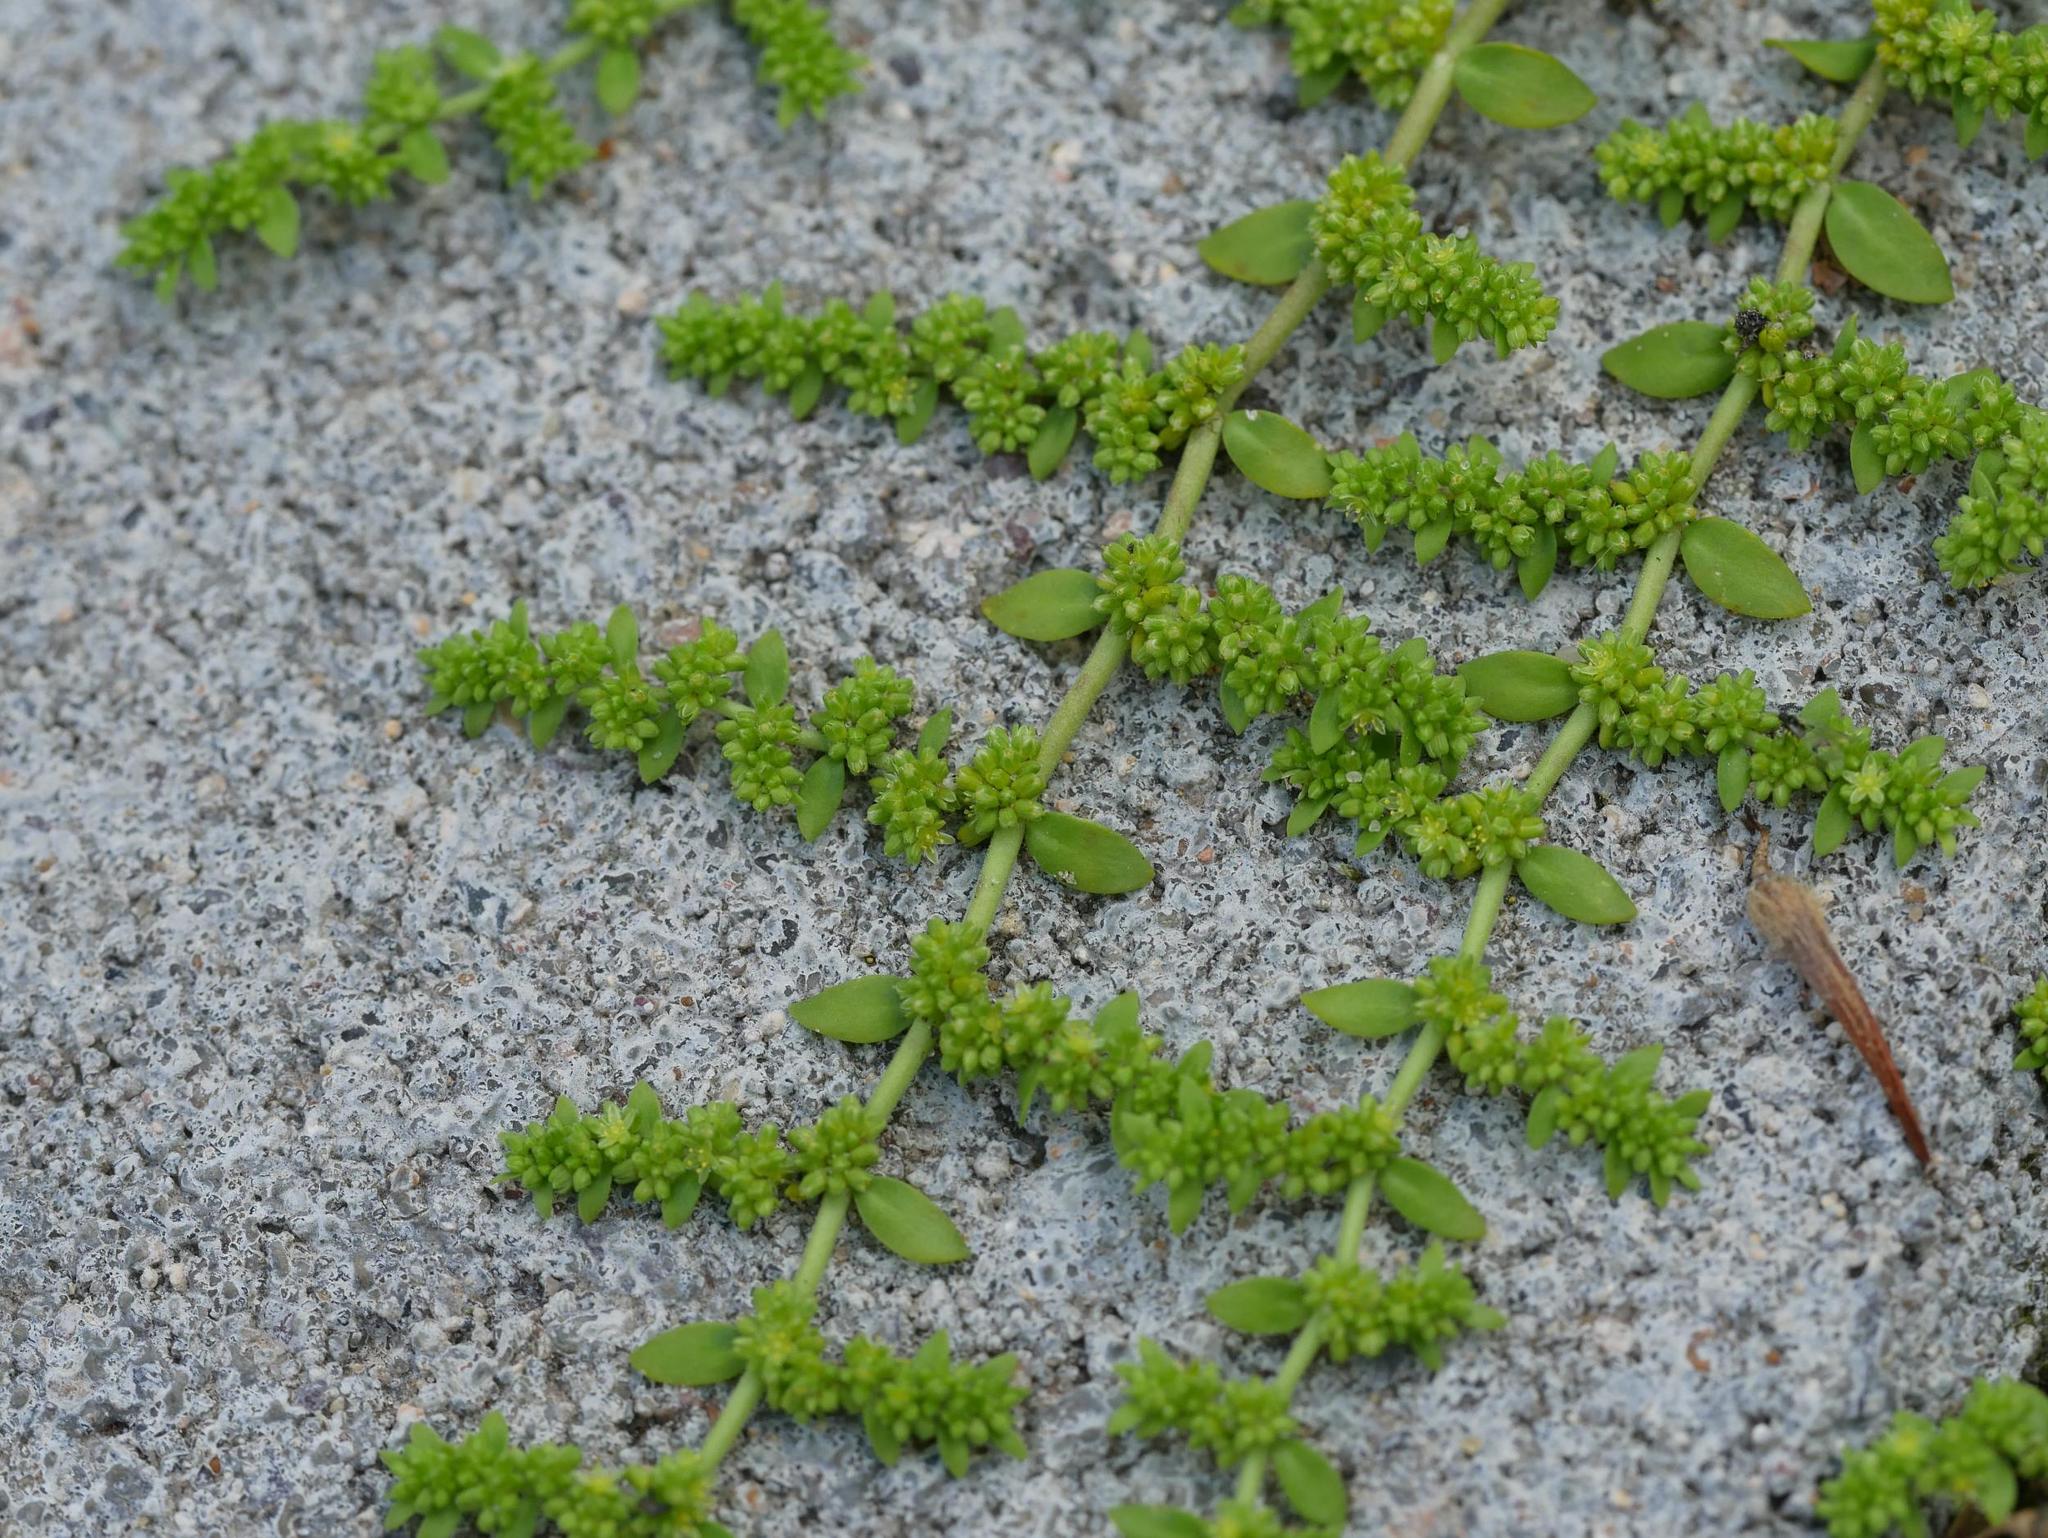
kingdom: Plantae
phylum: Tracheophyta
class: Magnoliopsida
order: Caryophyllales
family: Caryophyllaceae
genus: Herniaria
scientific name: Herniaria glabra
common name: Smooth rupturewort
